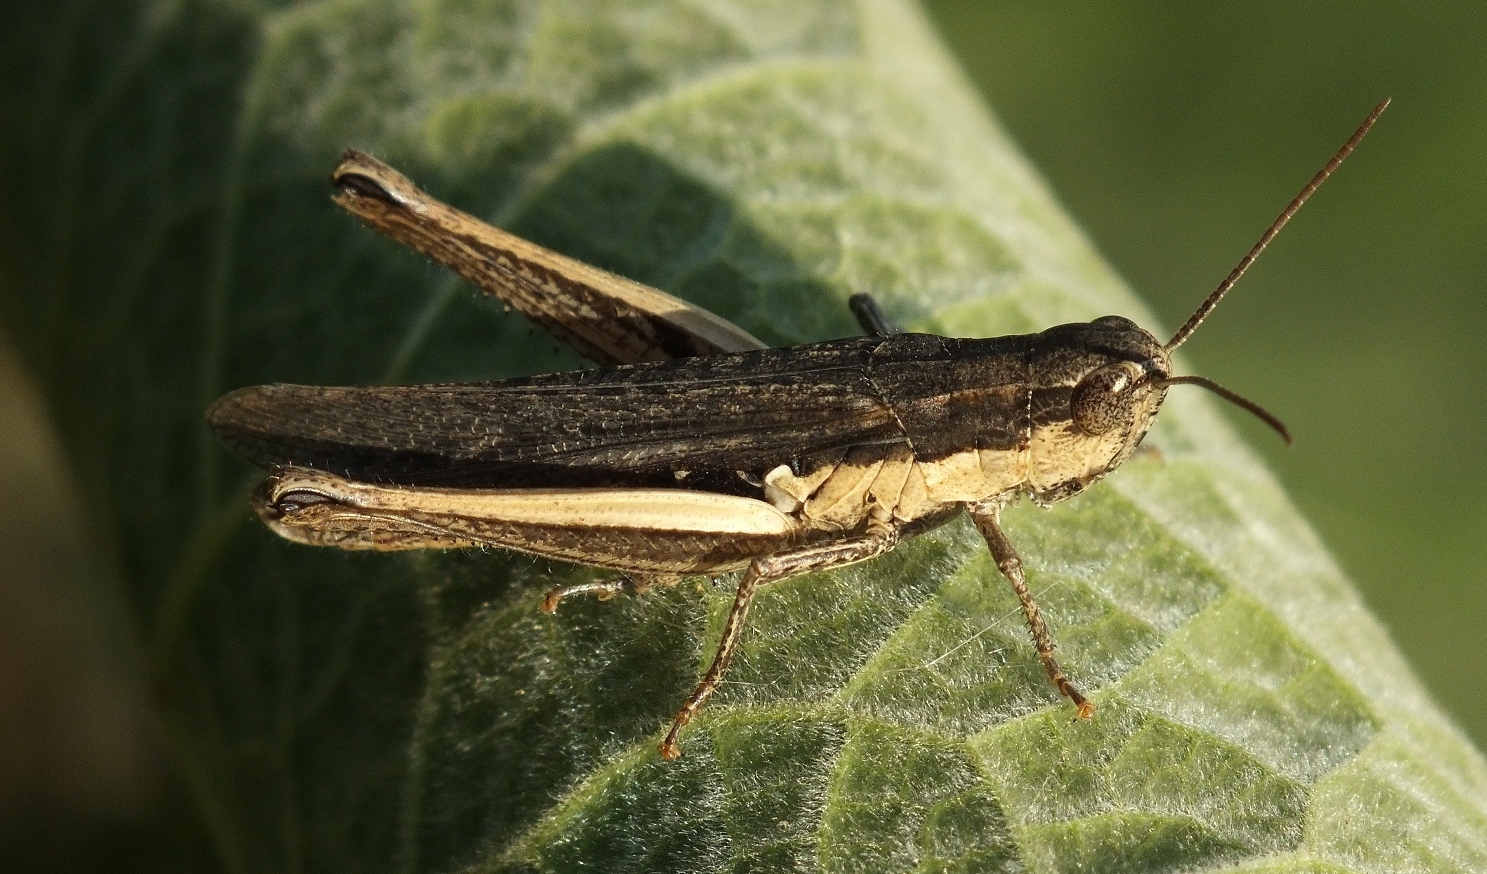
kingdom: Animalia
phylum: Arthropoda
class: Insecta
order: Orthoptera
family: Acrididae
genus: Chorthippus
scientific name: Chorthippus dichrous
